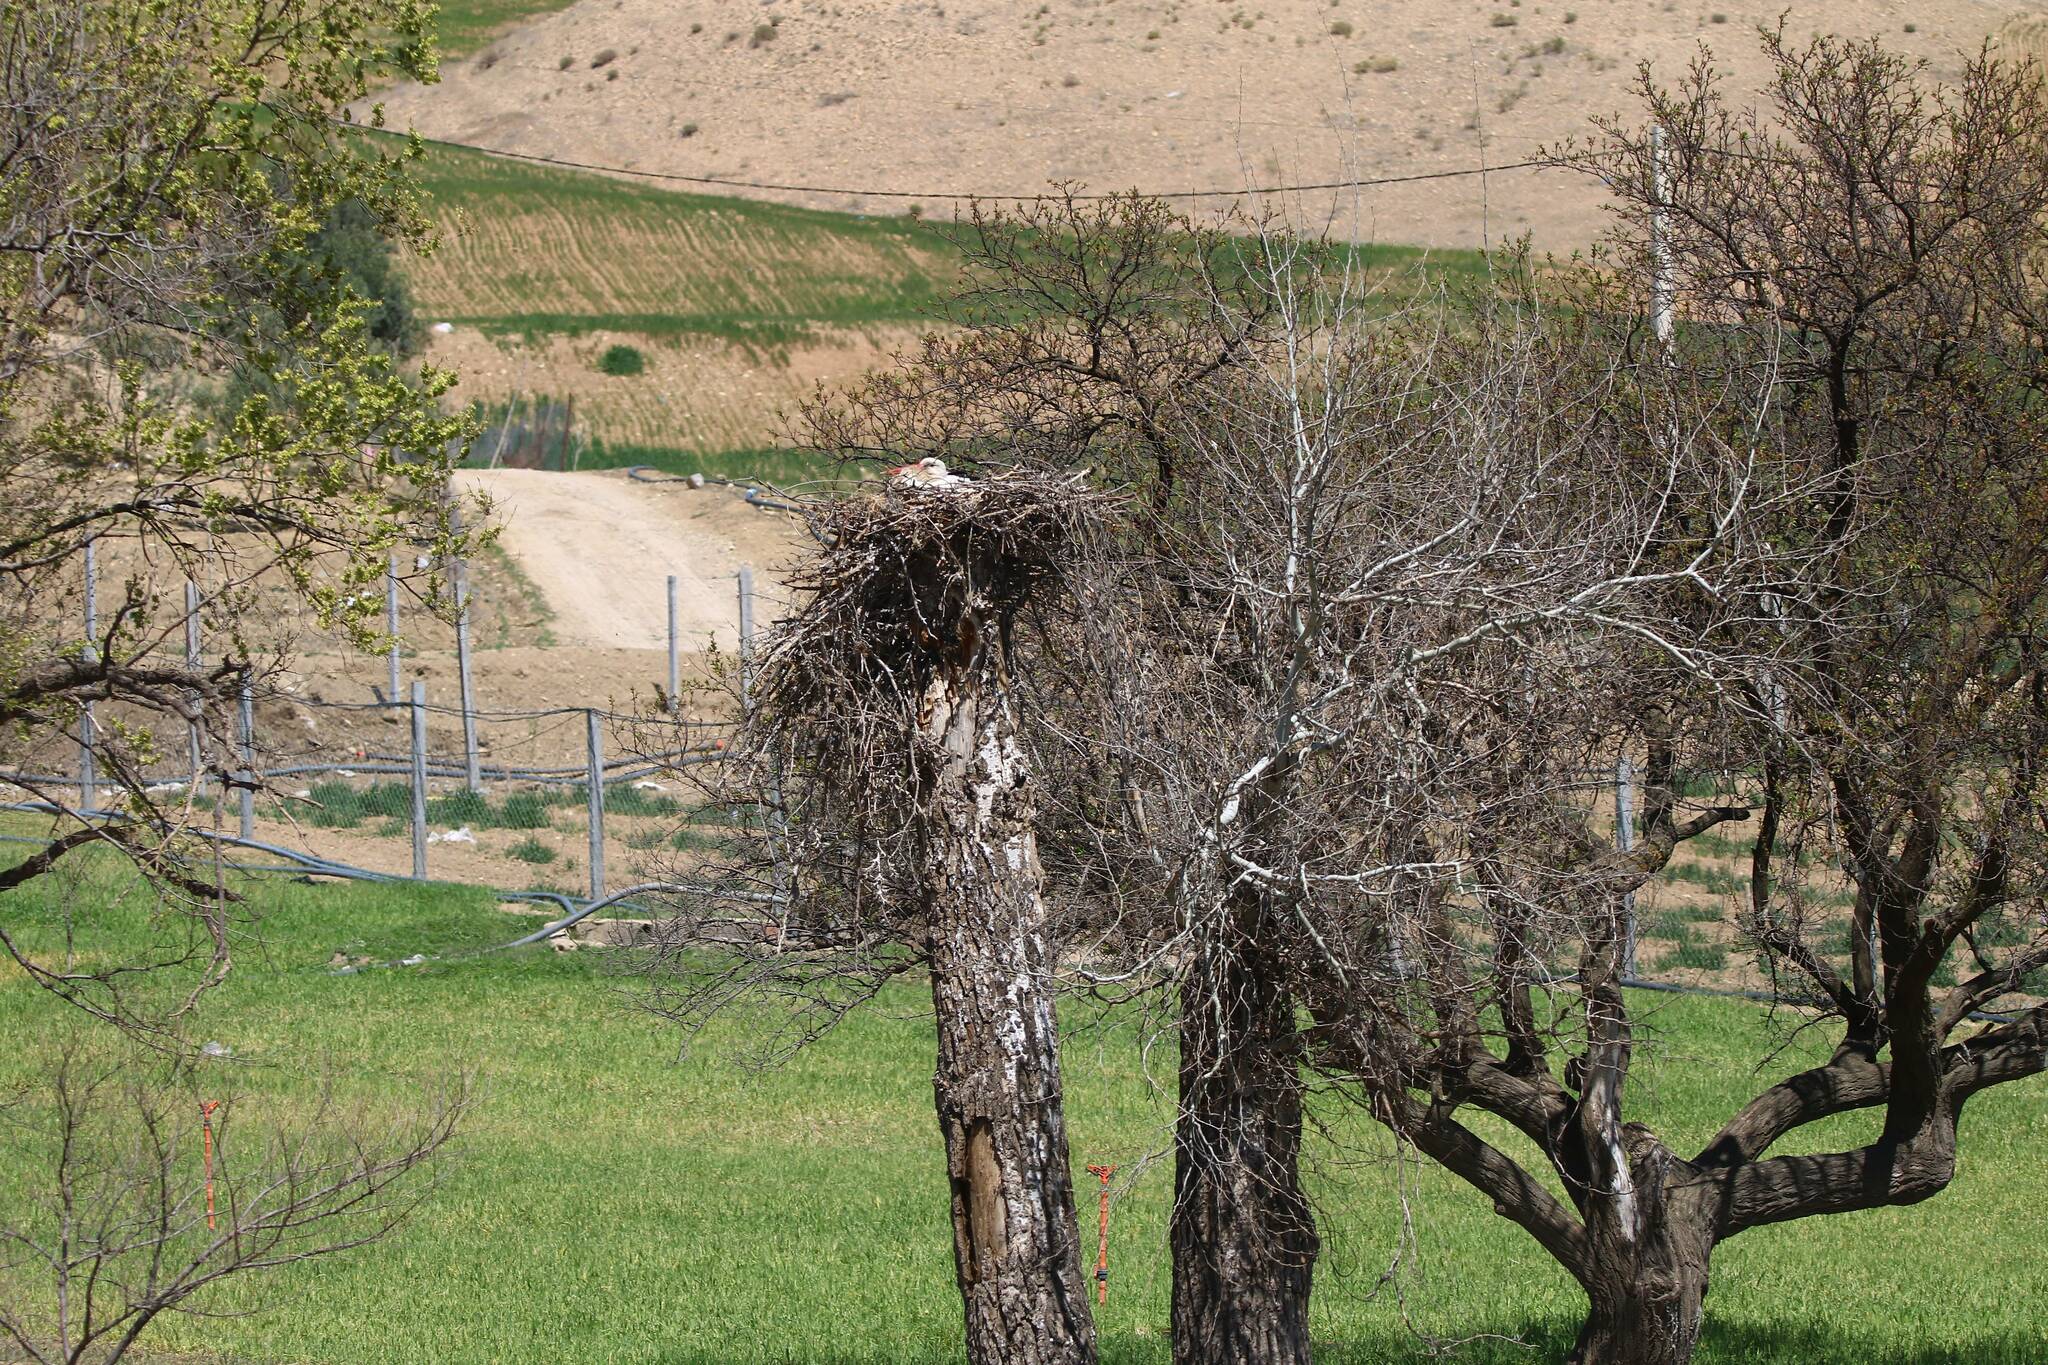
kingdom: Animalia
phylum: Chordata
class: Aves
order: Ciconiiformes
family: Ciconiidae
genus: Ciconia
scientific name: Ciconia ciconia
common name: White stork
